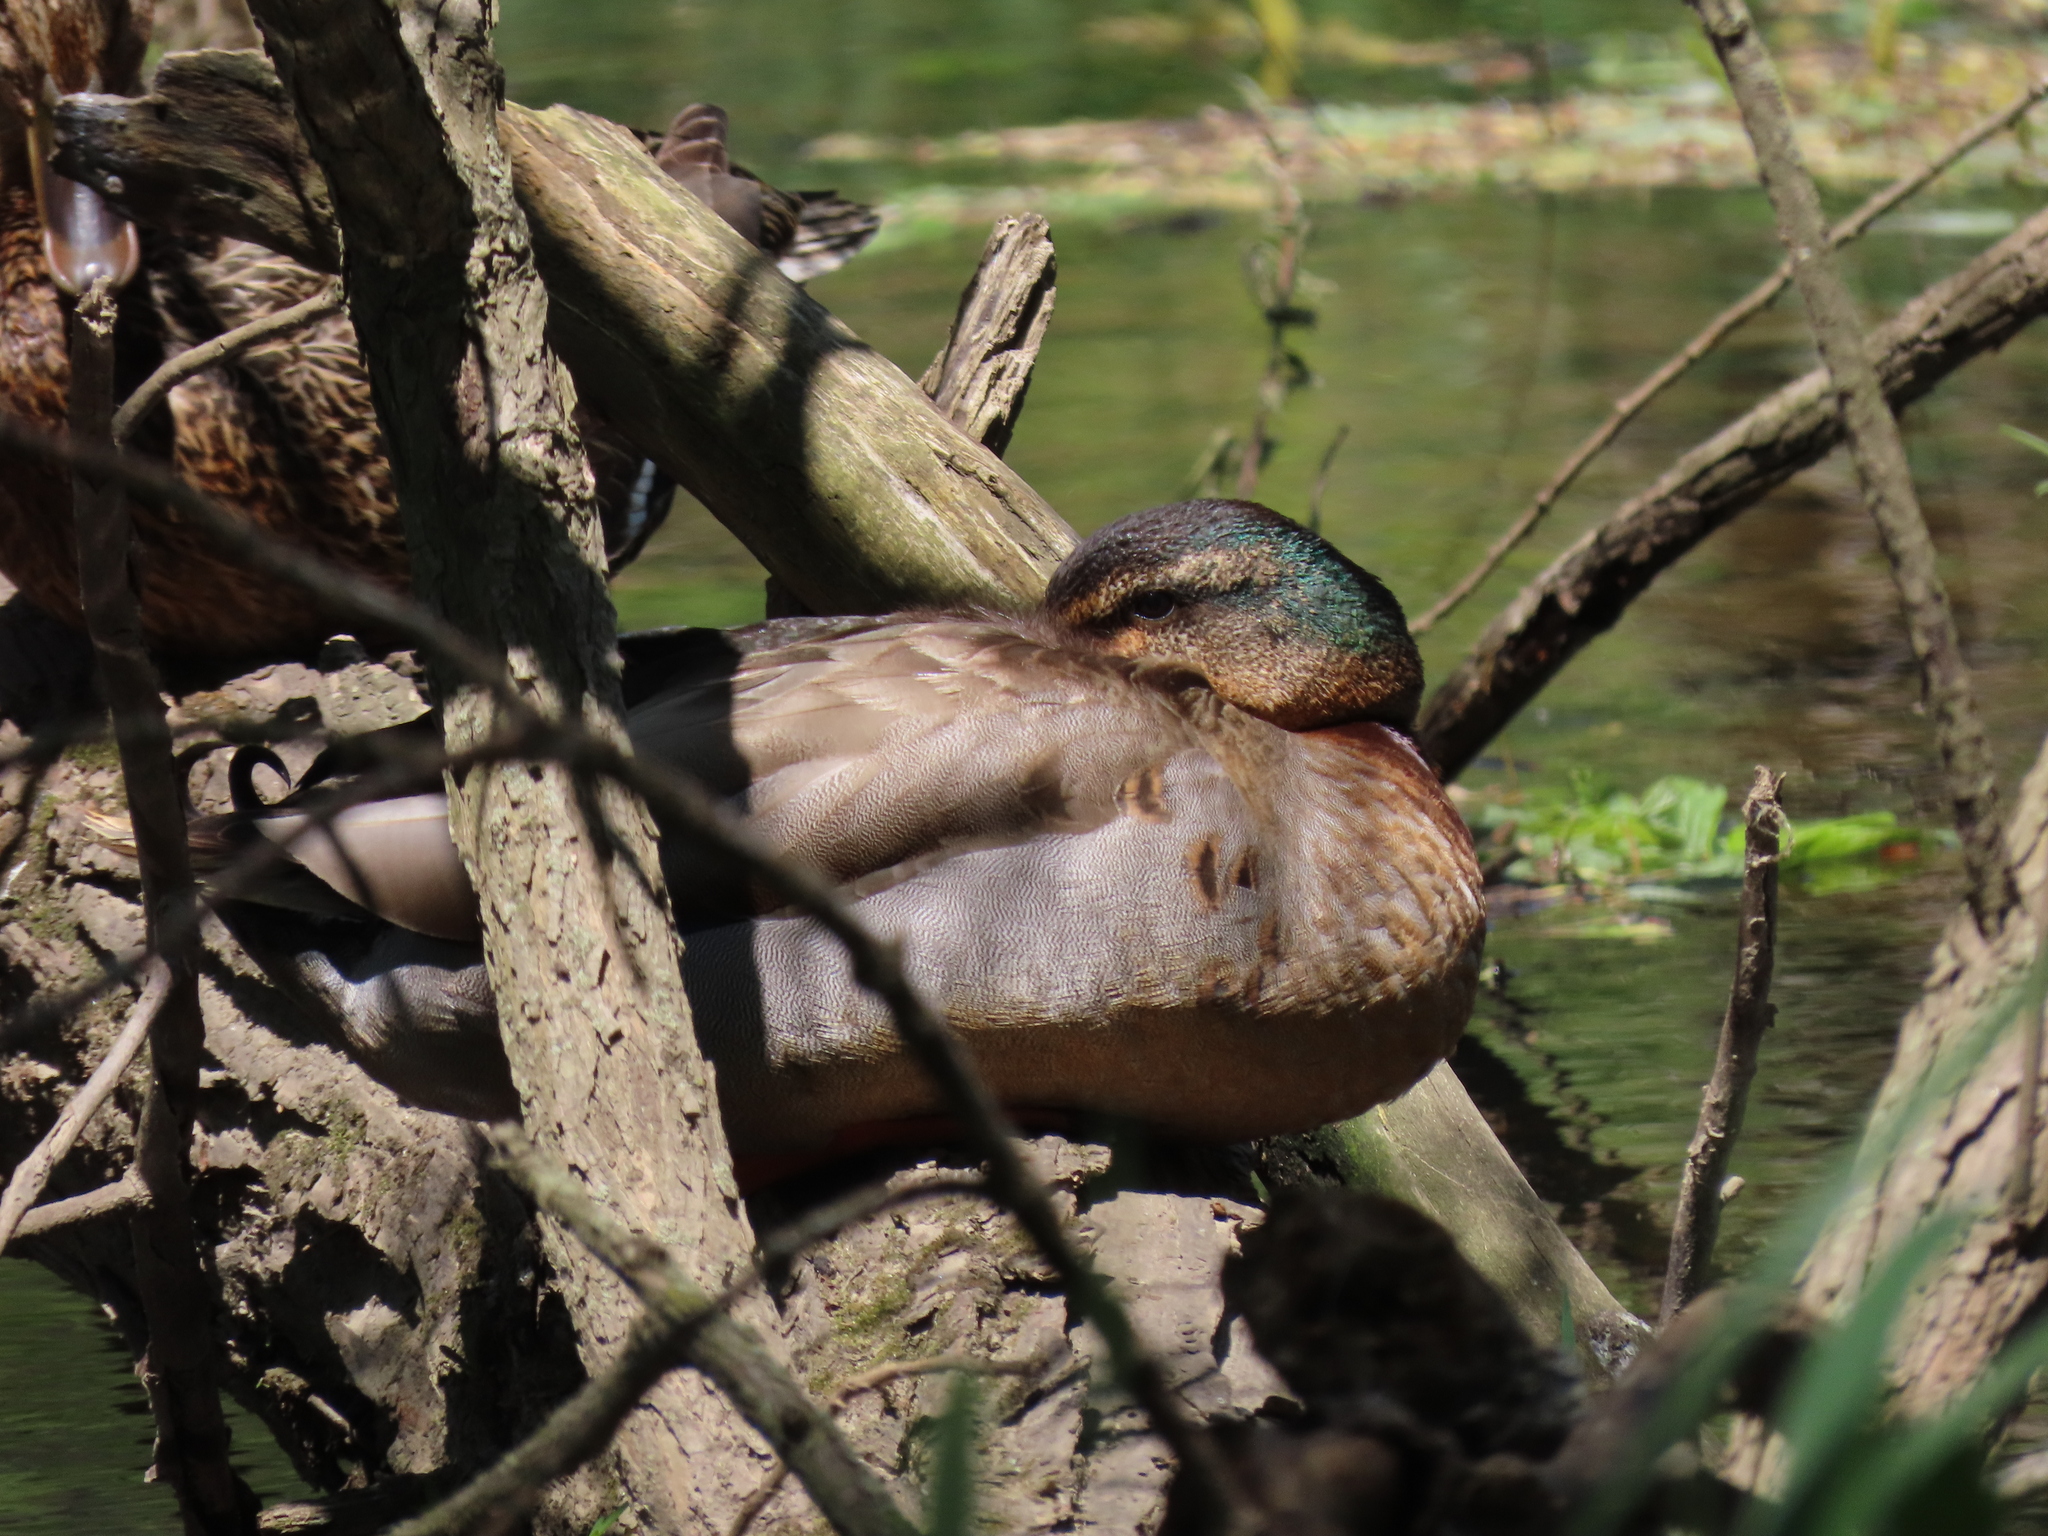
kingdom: Animalia
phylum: Chordata
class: Aves
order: Anseriformes
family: Anatidae
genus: Anas
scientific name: Anas platyrhynchos
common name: Mallard
